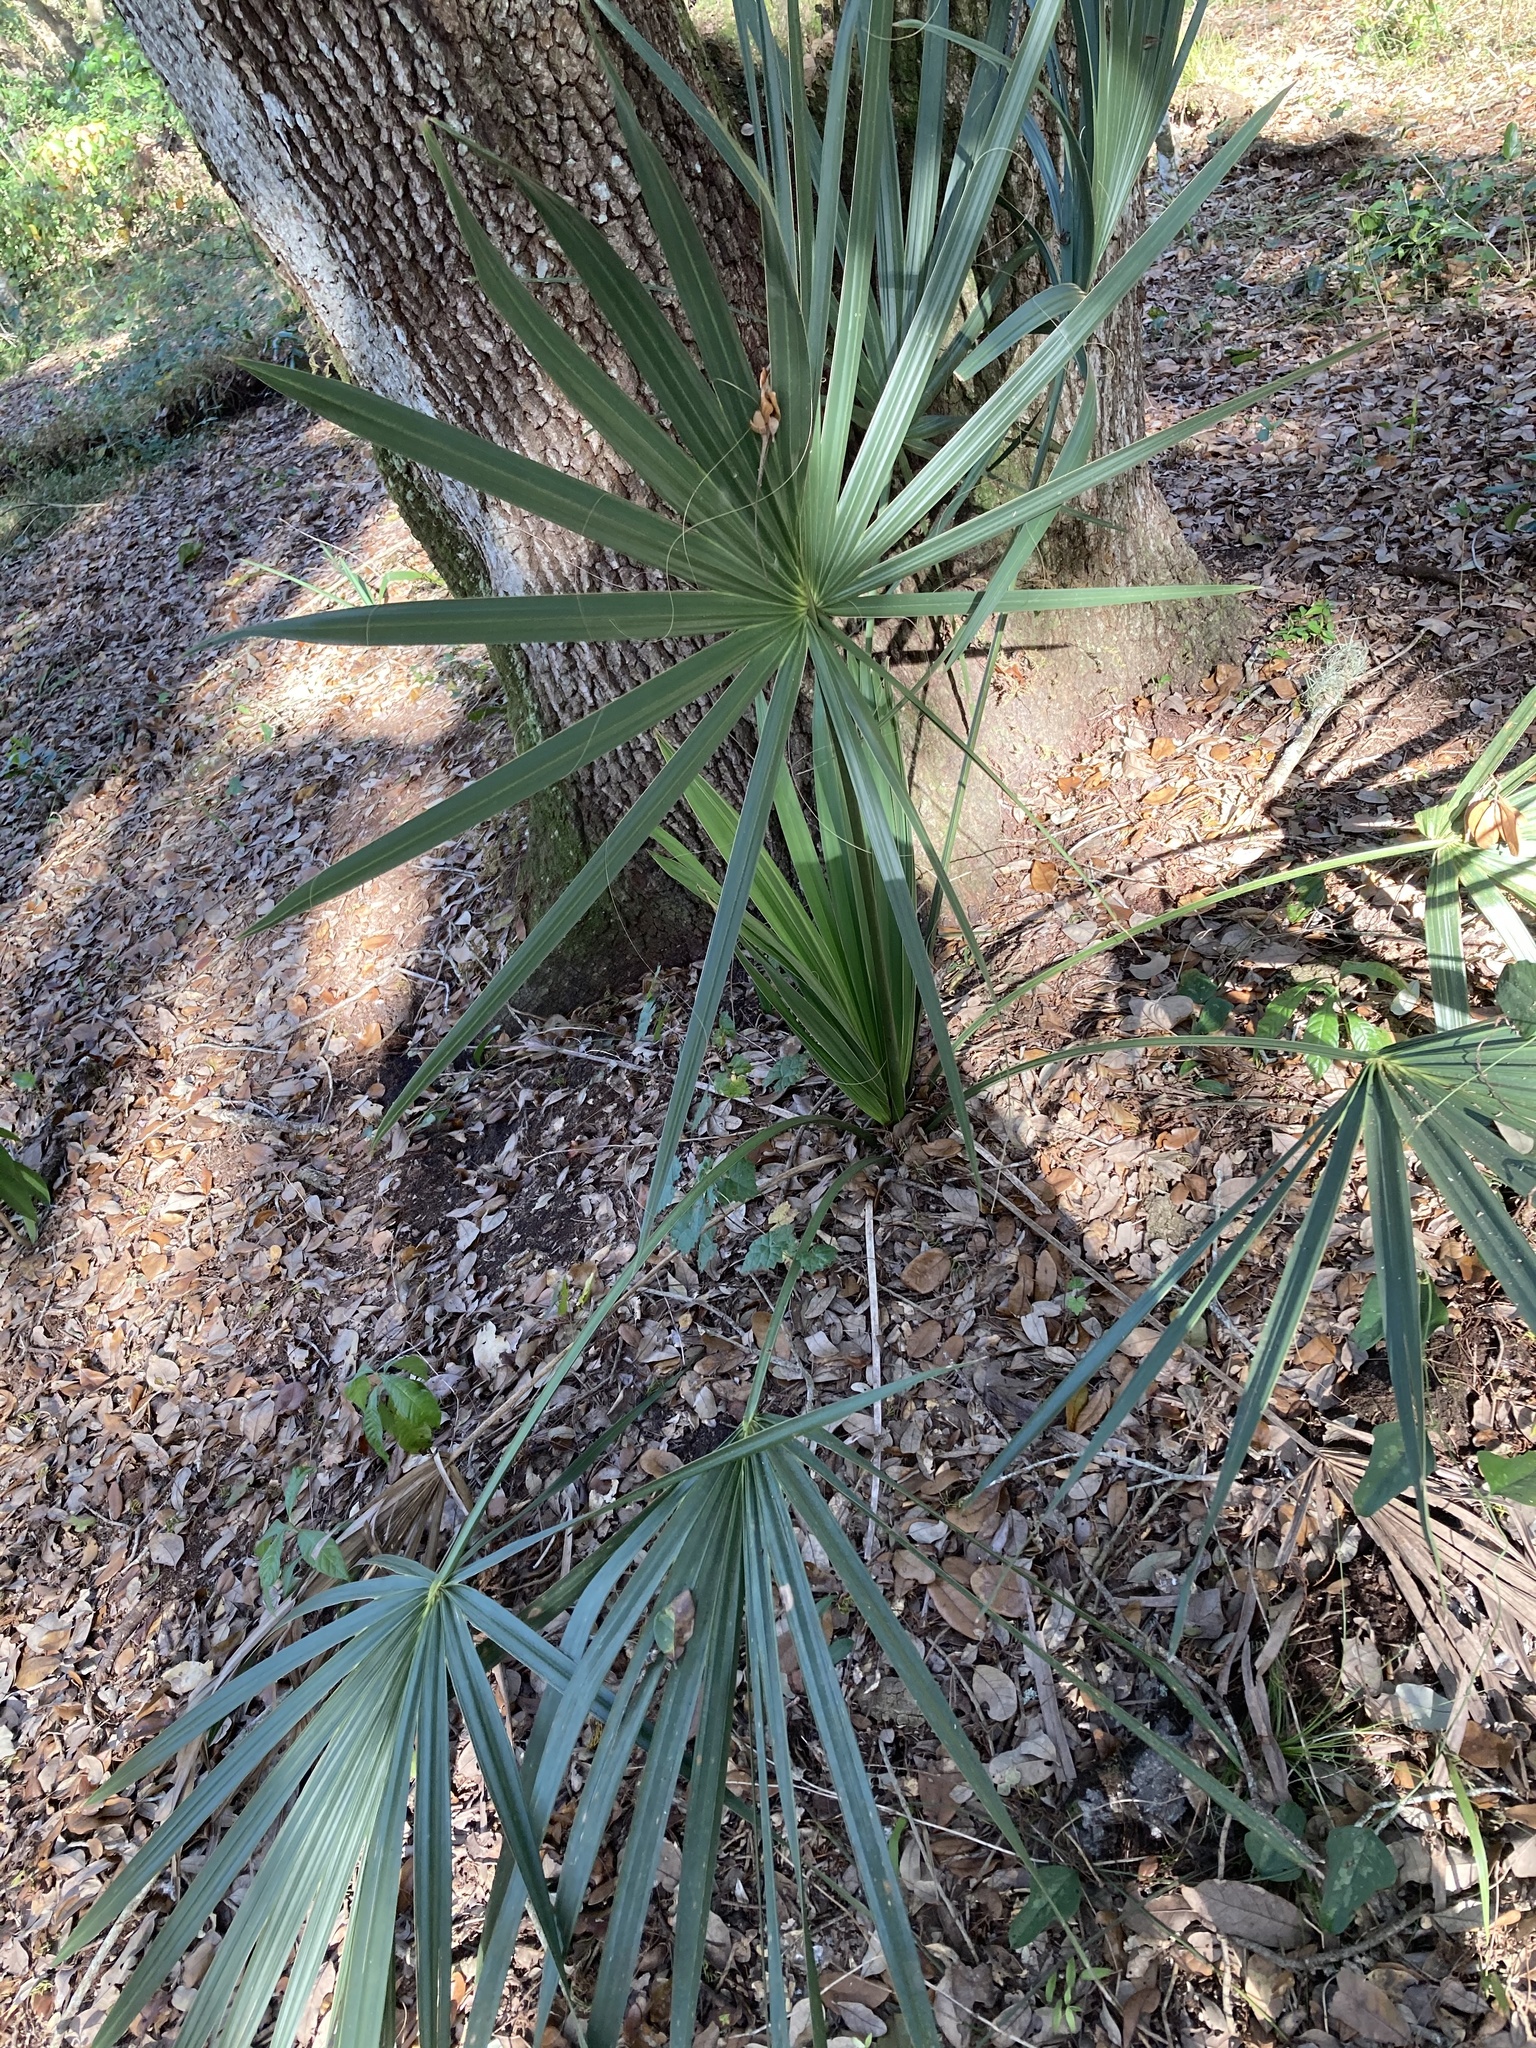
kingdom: Plantae
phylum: Tracheophyta
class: Liliopsida
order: Arecales
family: Arecaceae
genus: Sabal
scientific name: Sabal palmetto
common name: Blue palmetto
